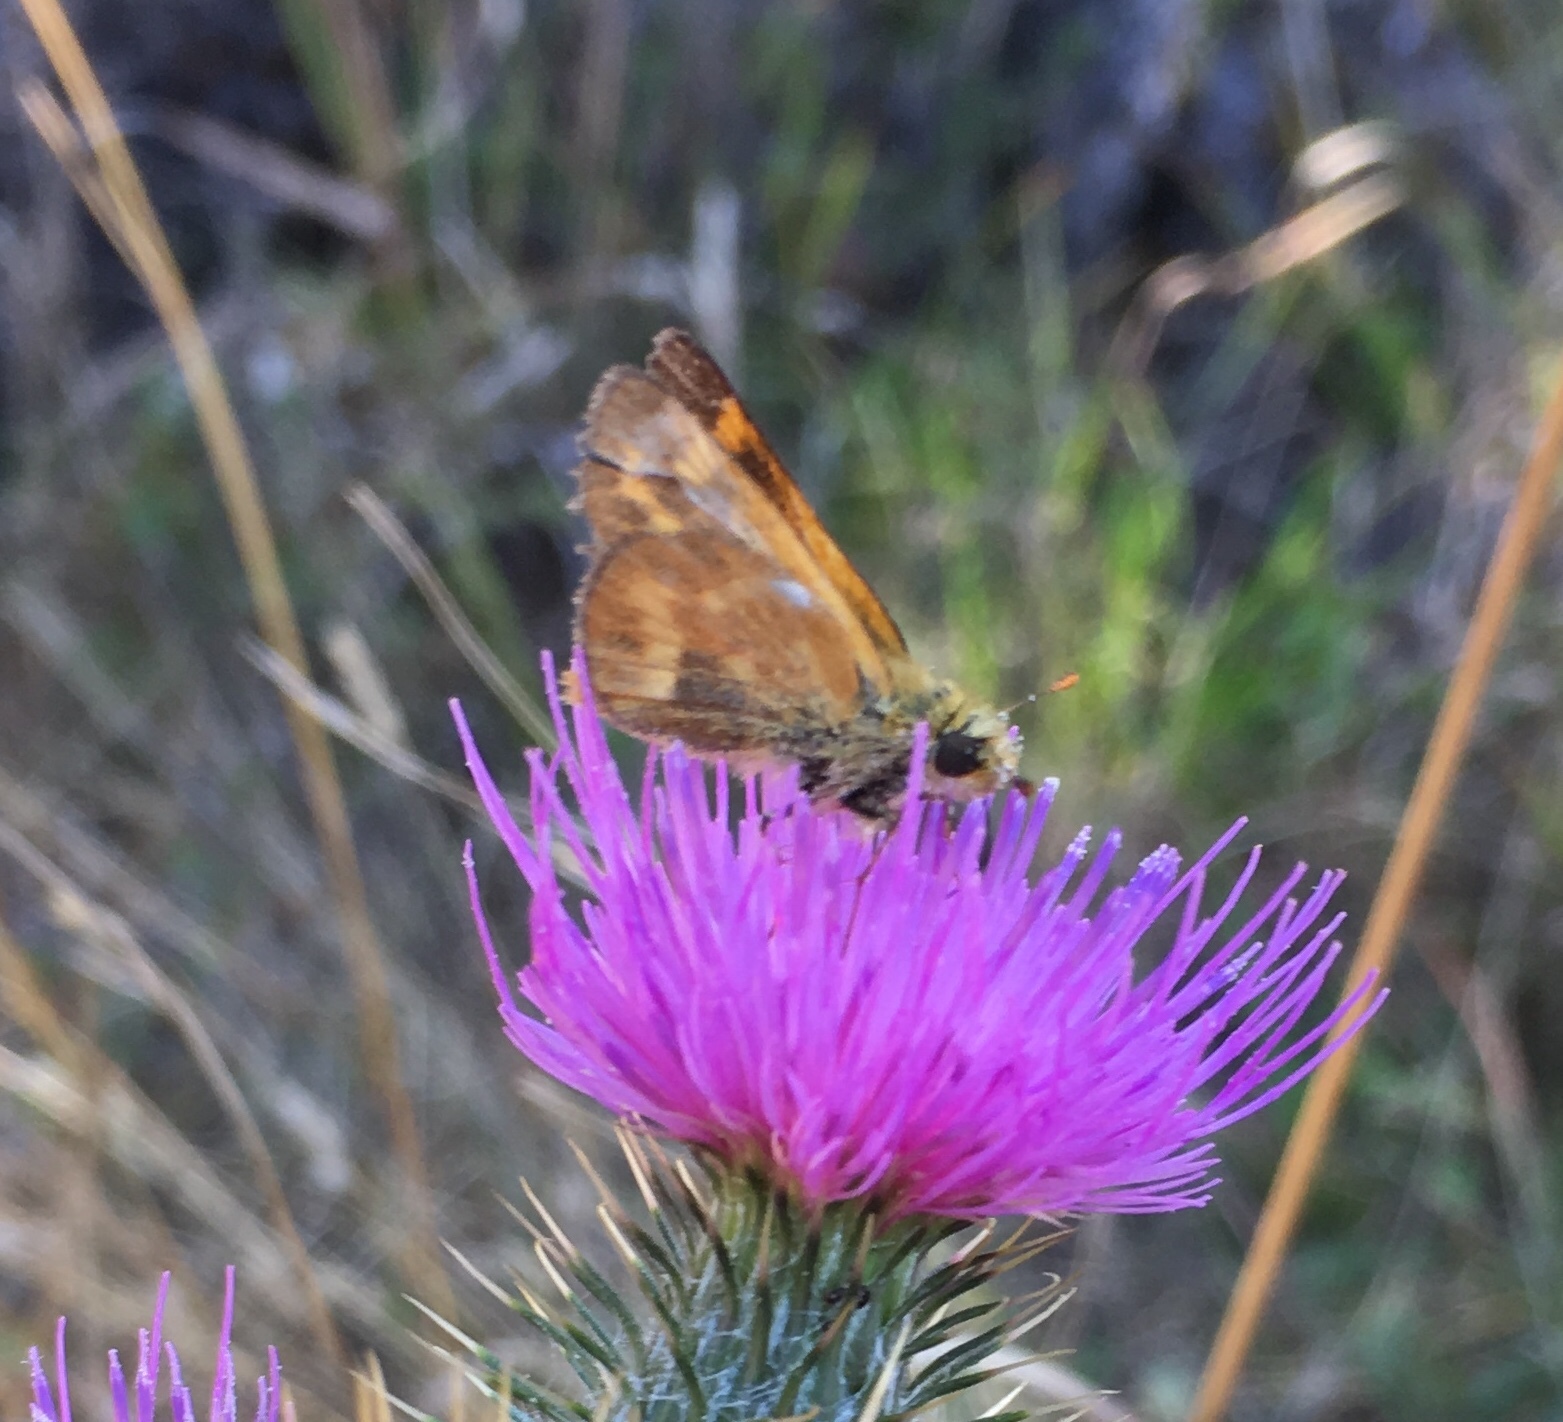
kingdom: Animalia
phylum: Arthropoda
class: Insecta
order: Lepidoptera
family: Hesperiidae
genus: Ochlodes
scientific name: Ochlodes sylvanoides
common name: Woodland skipper
